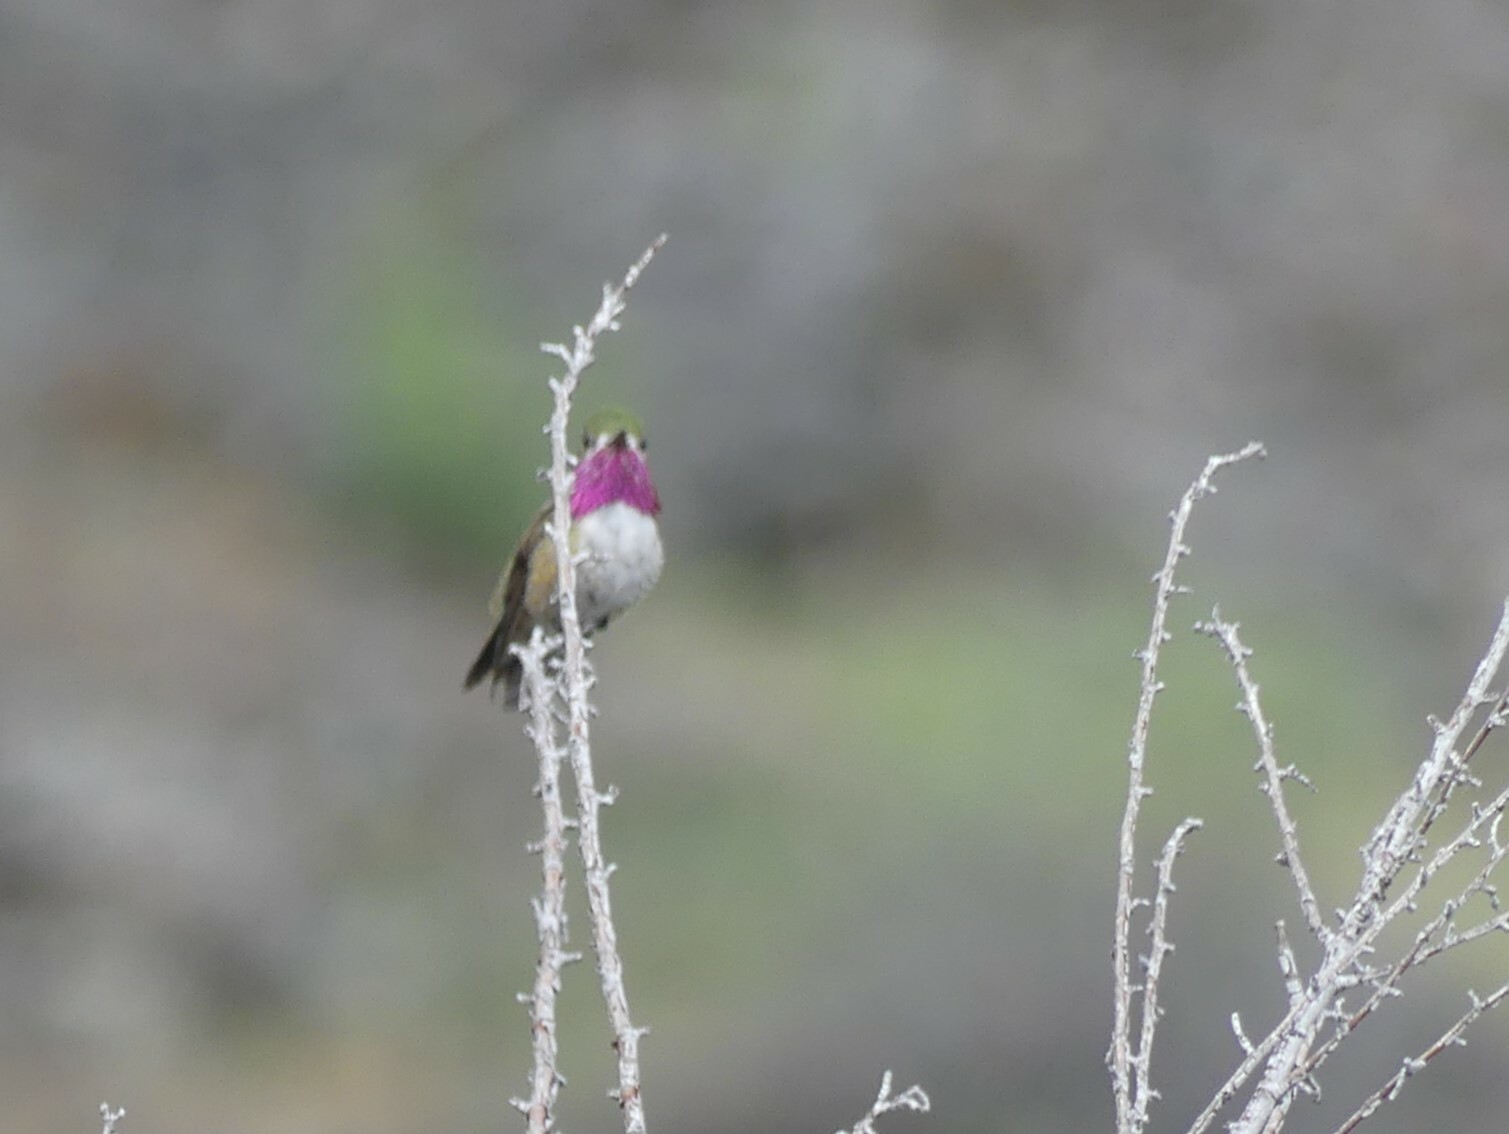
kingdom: Animalia
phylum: Chordata
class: Aves
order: Apodiformes
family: Trochilidae
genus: Selasphorus
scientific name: Selasphorus calliope
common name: Calliope hummingbird
